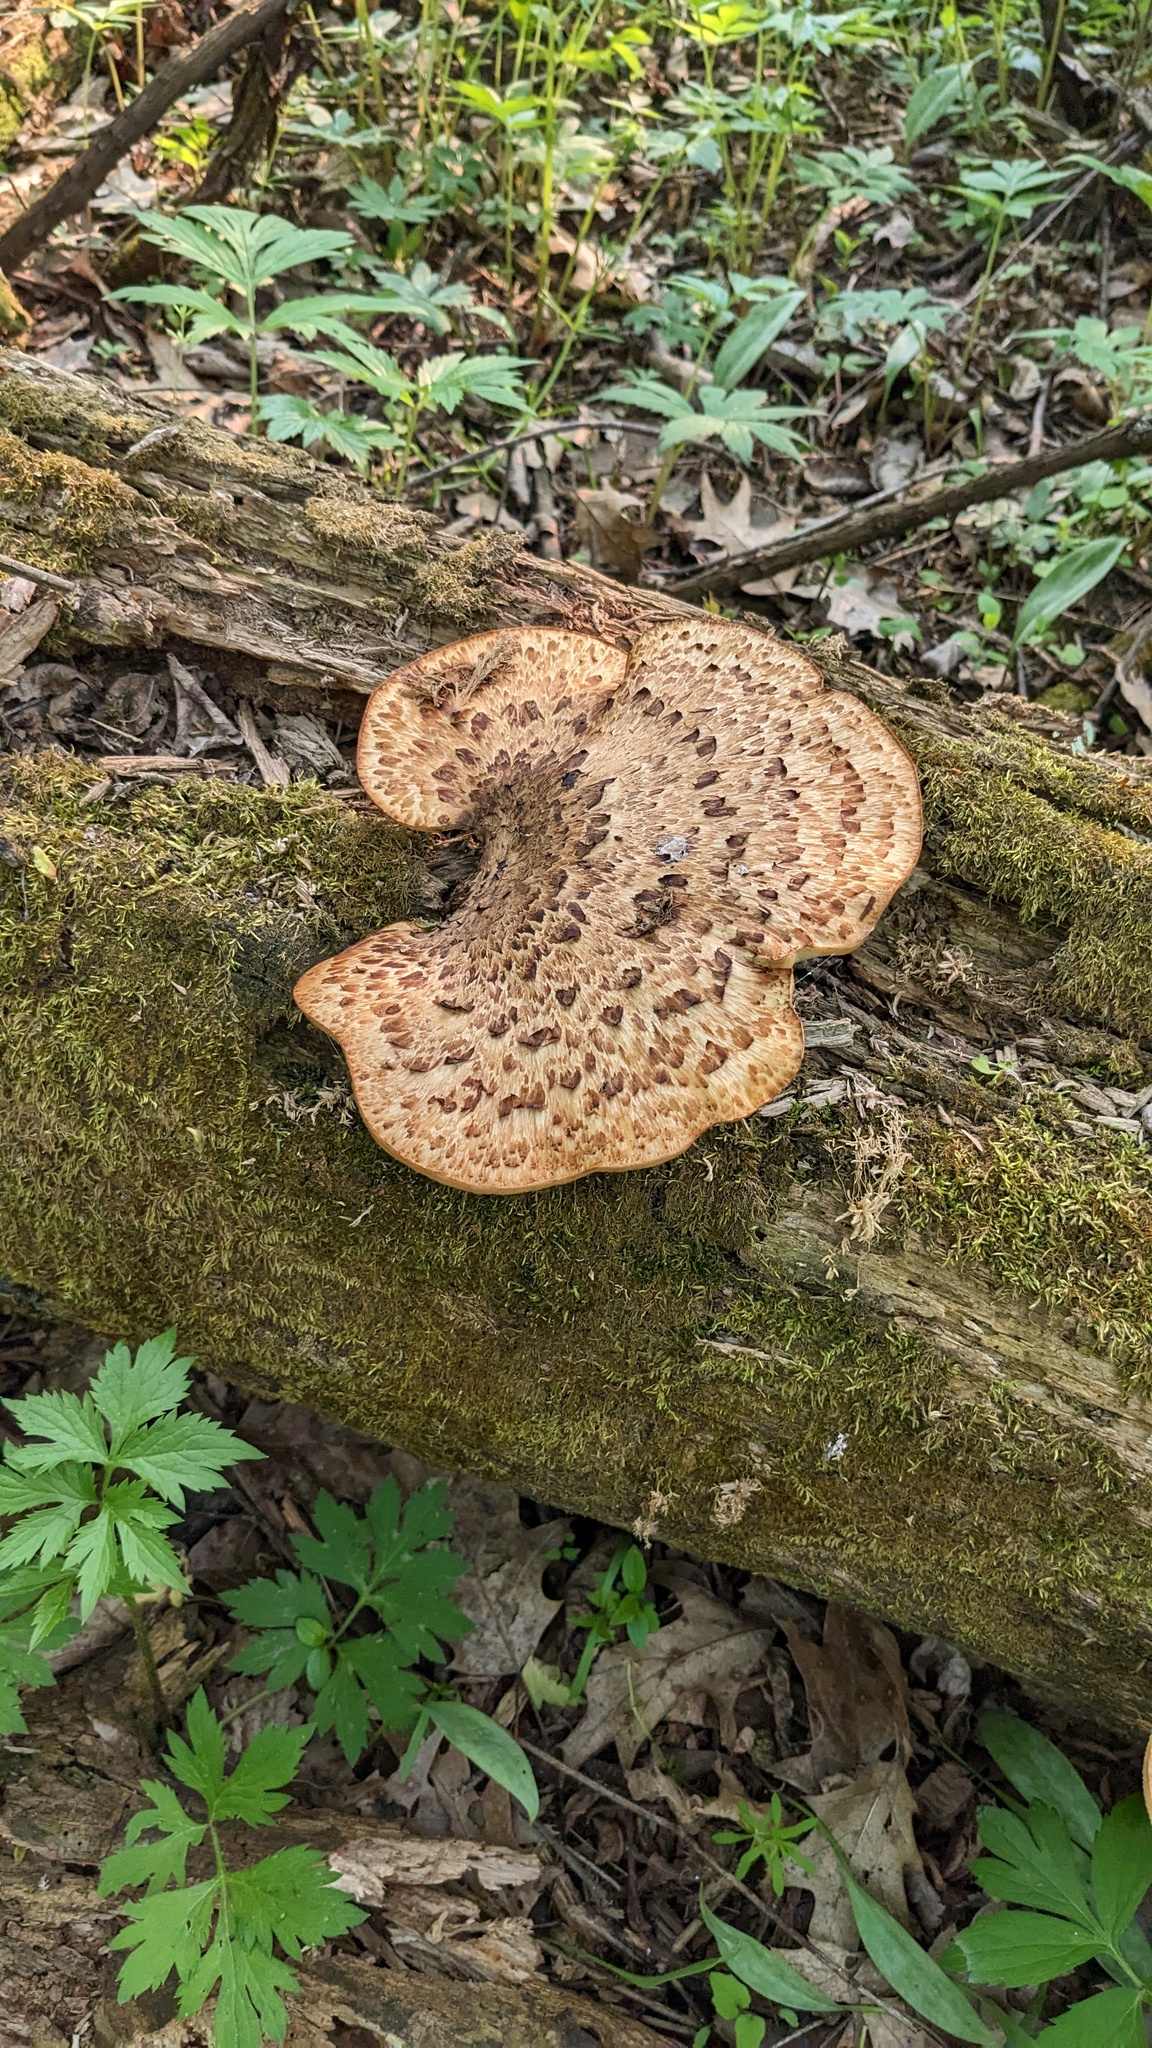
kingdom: Fungi
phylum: Basidiomycota
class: Agaricomycetes
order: Polyporales
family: Polyporaceae
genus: Cerioporus
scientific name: Cerioporus squamosus
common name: Dryad's saddle
